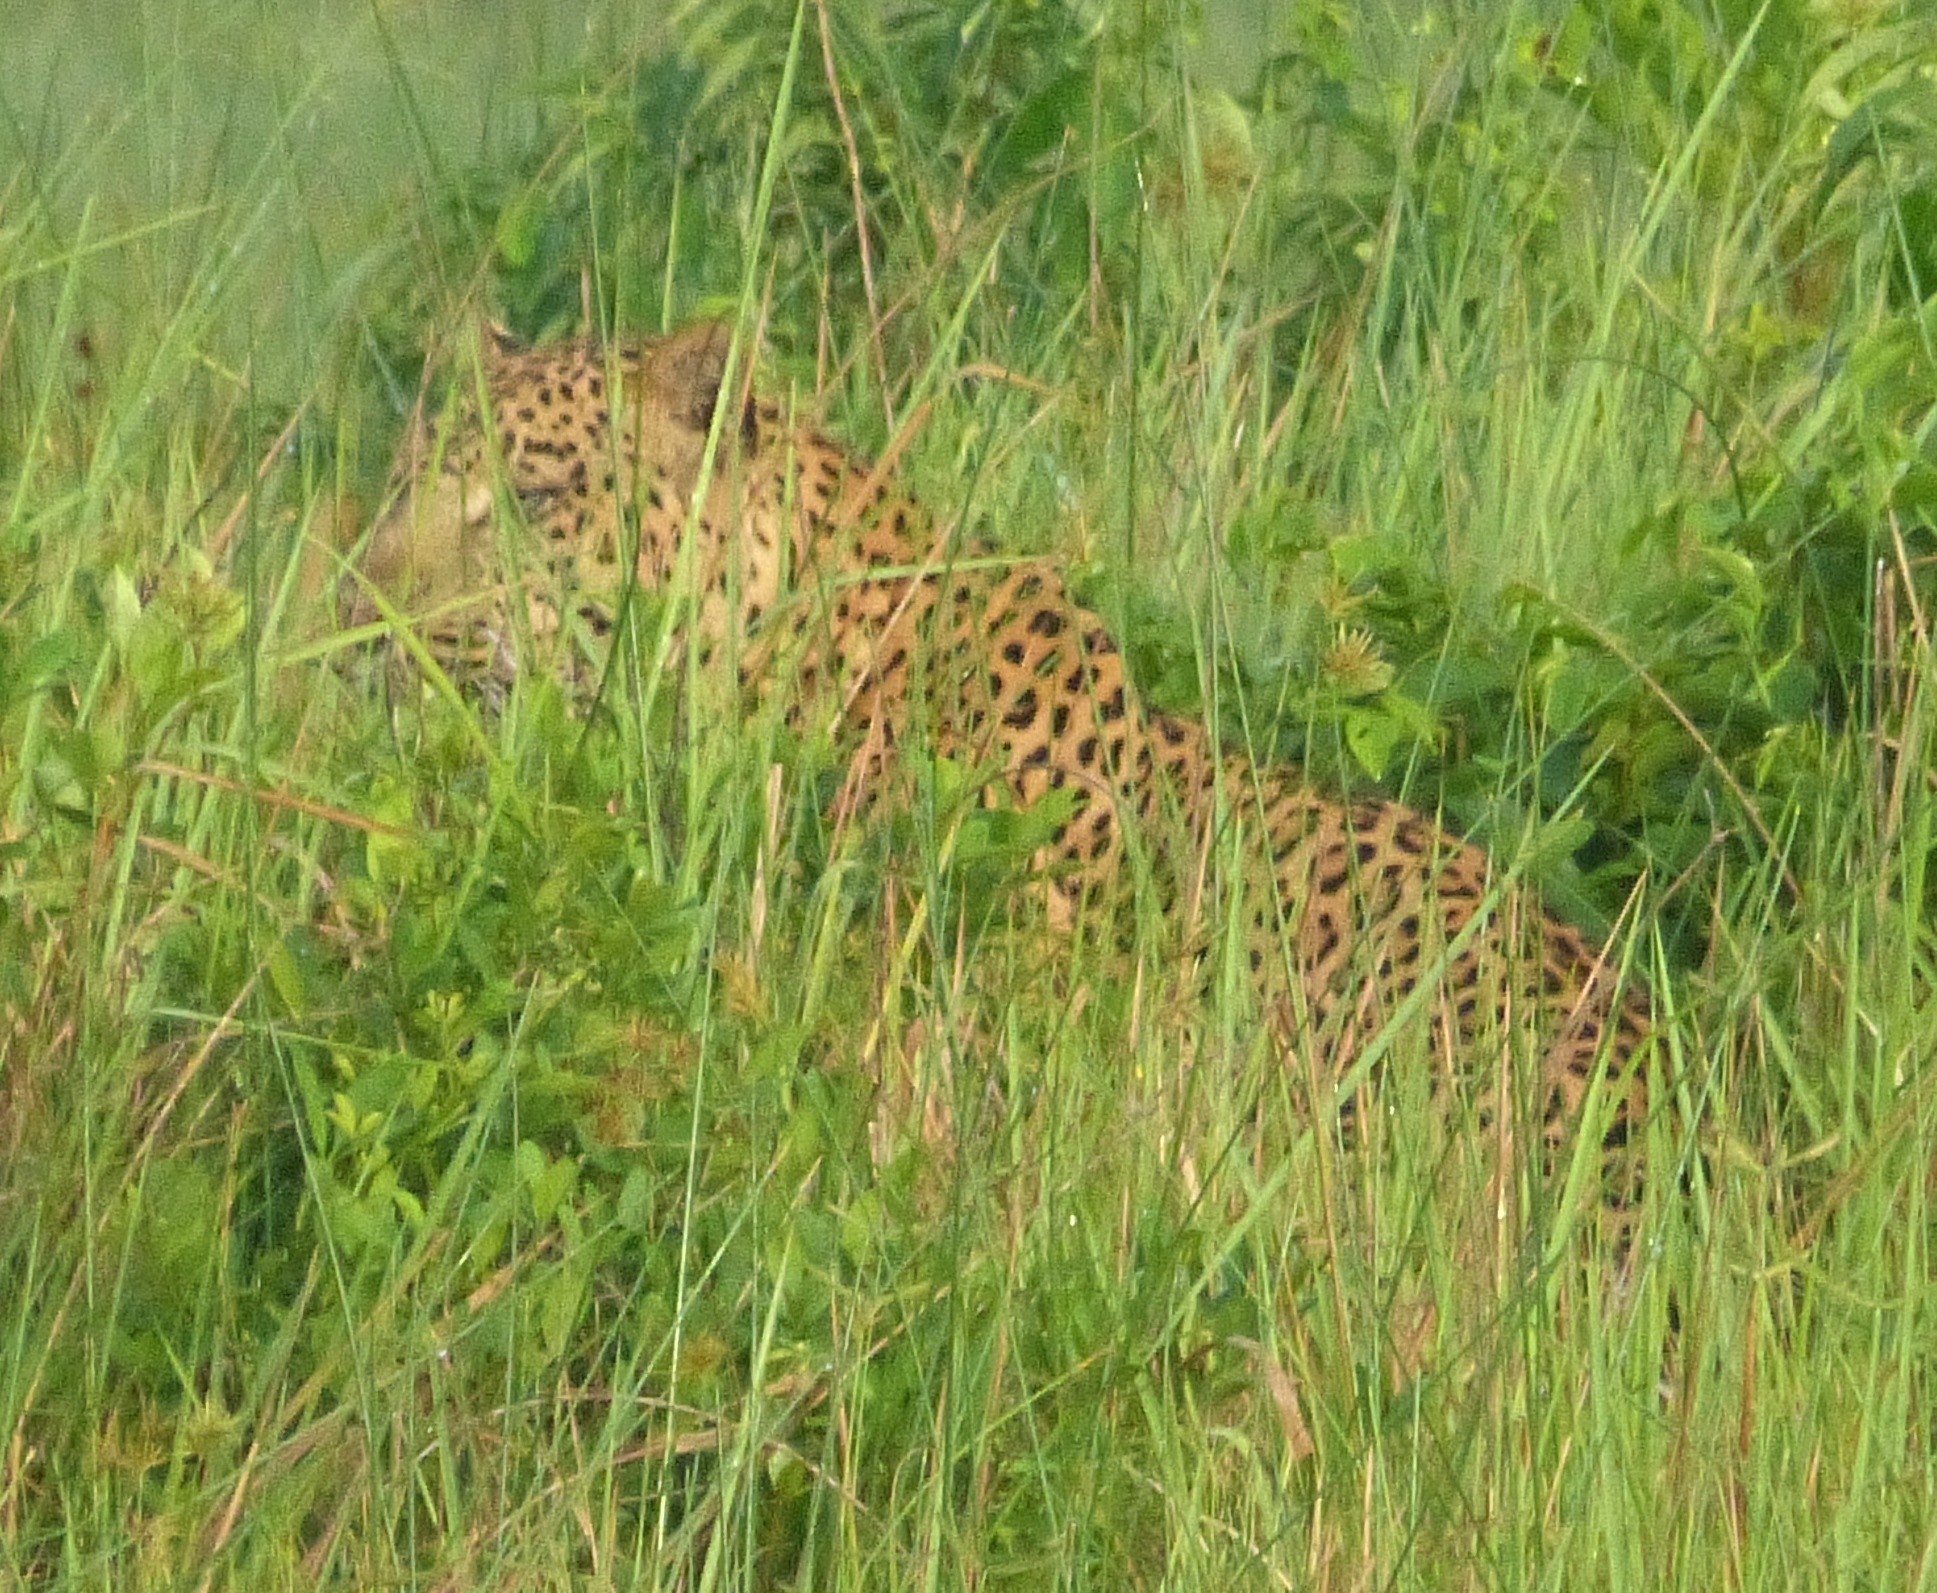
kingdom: Animalia
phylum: Chordata
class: Mammalia
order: Carnivora
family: Felidae
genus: Panthera
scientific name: Panthera pardus
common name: Leopard
